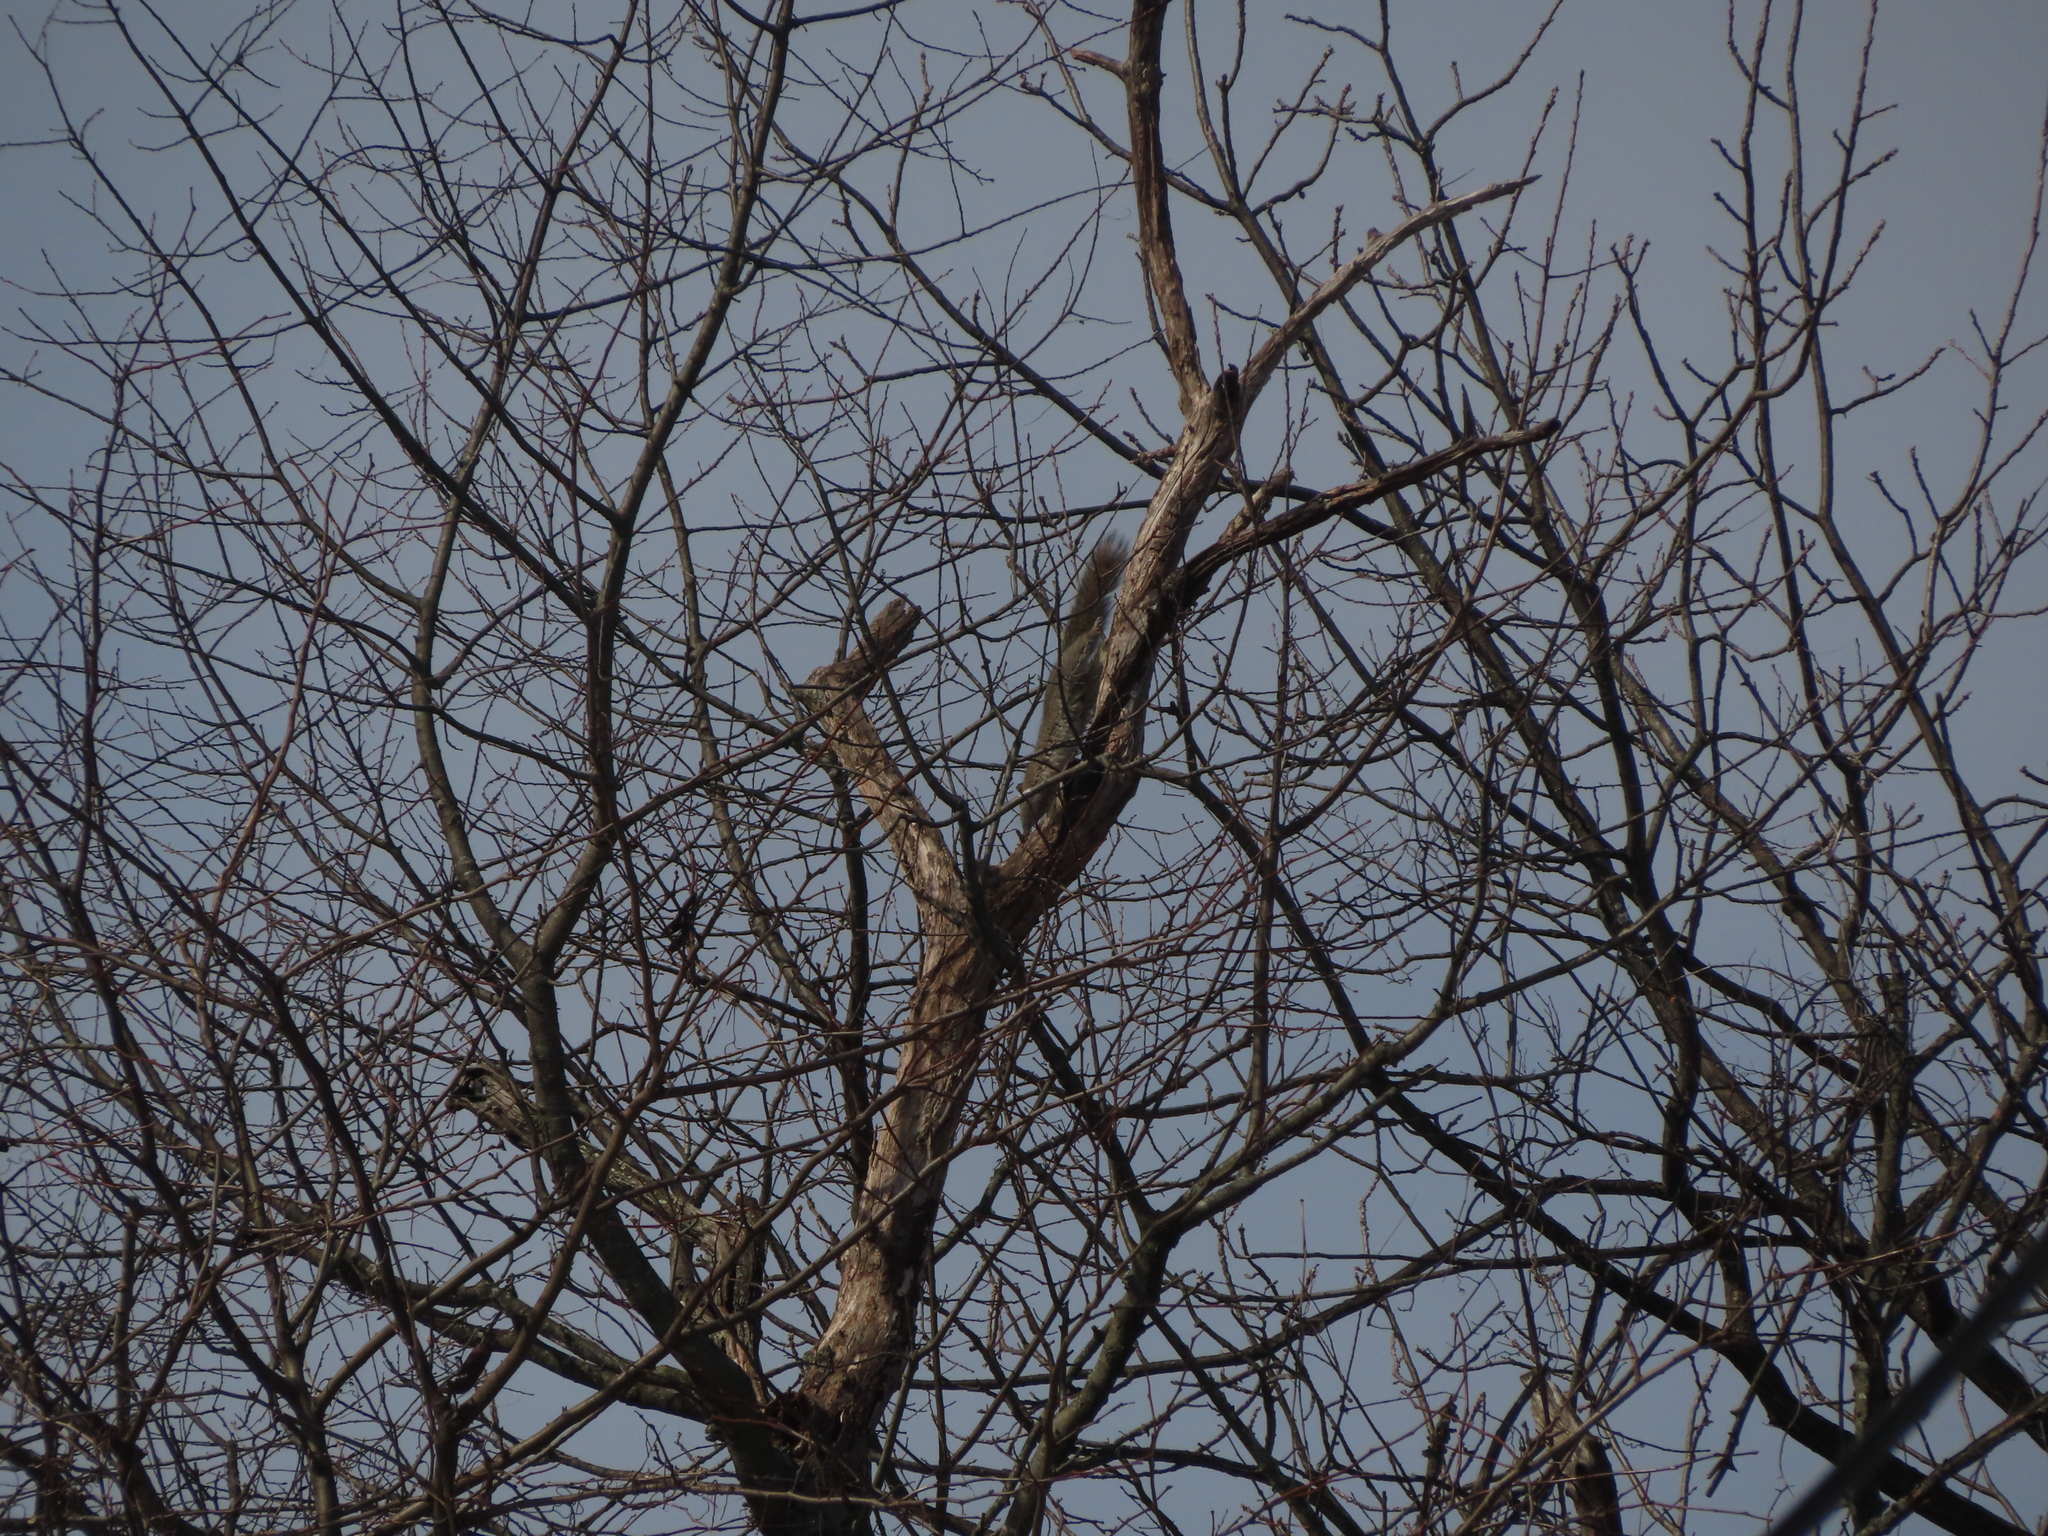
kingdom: Animalia
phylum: Chordata
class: Mammalia
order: Rodentia
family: Sciuridae
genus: Sciurus
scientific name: Sciurus carolinensis
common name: Eastern gray squirrel
